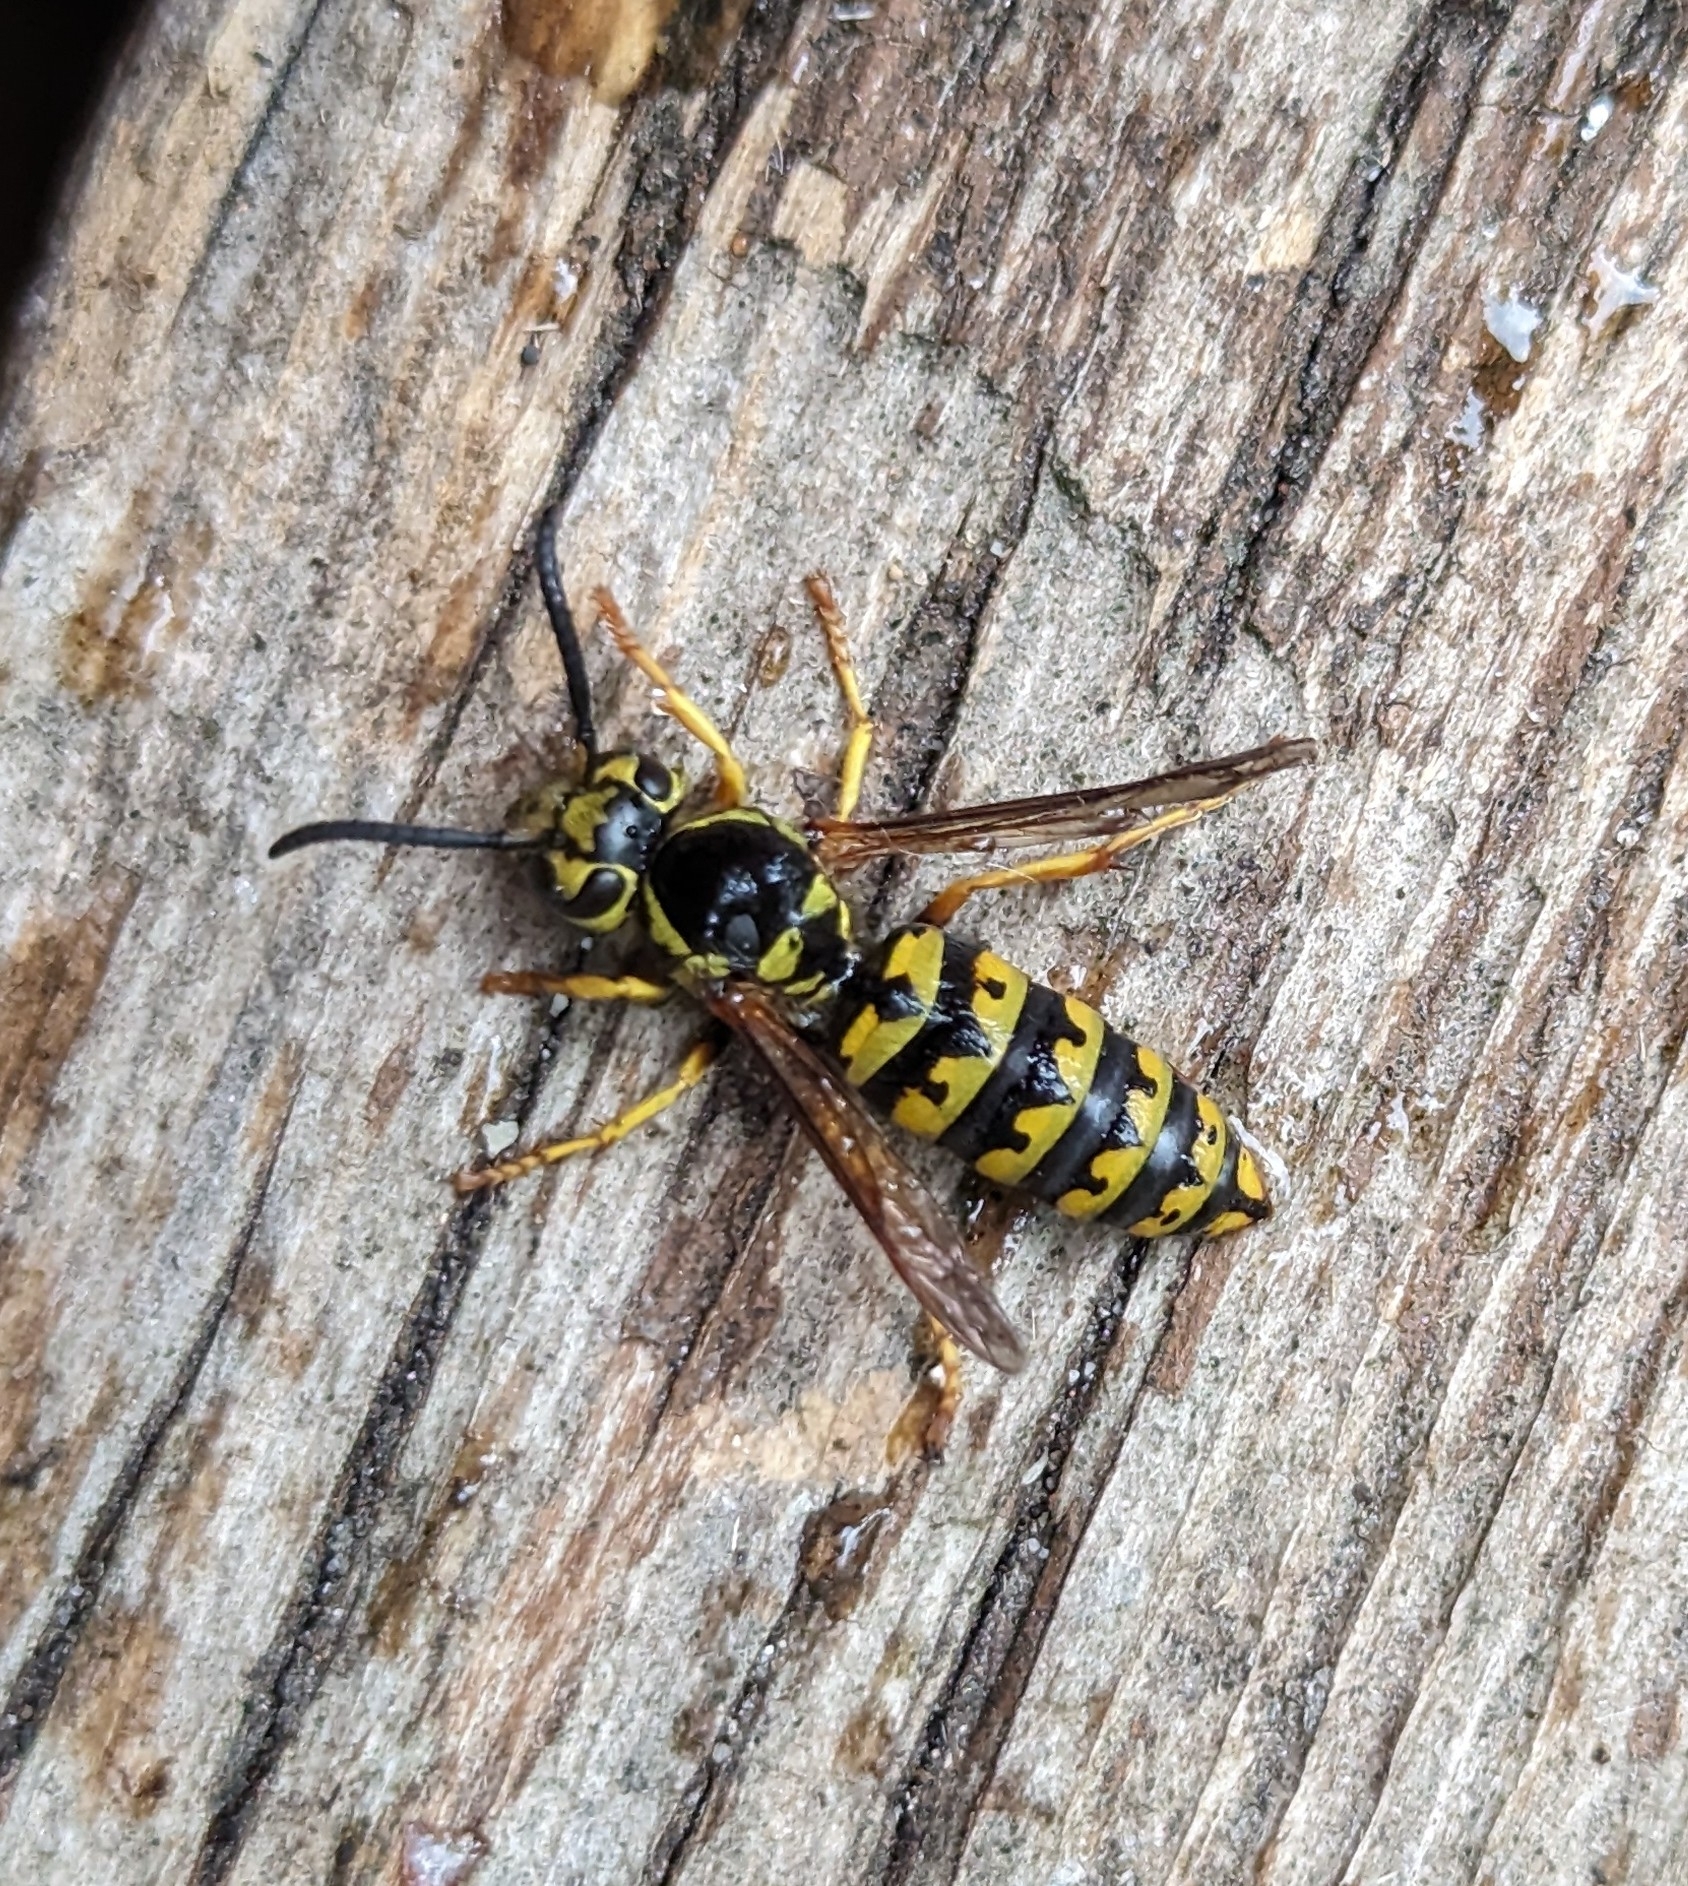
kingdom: Animalia
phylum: Arthropoda
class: Insecta
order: Hymenoptera
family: Vespidae
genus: Vespula
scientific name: Vespula pensylvanica
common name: Western yellowjacket
